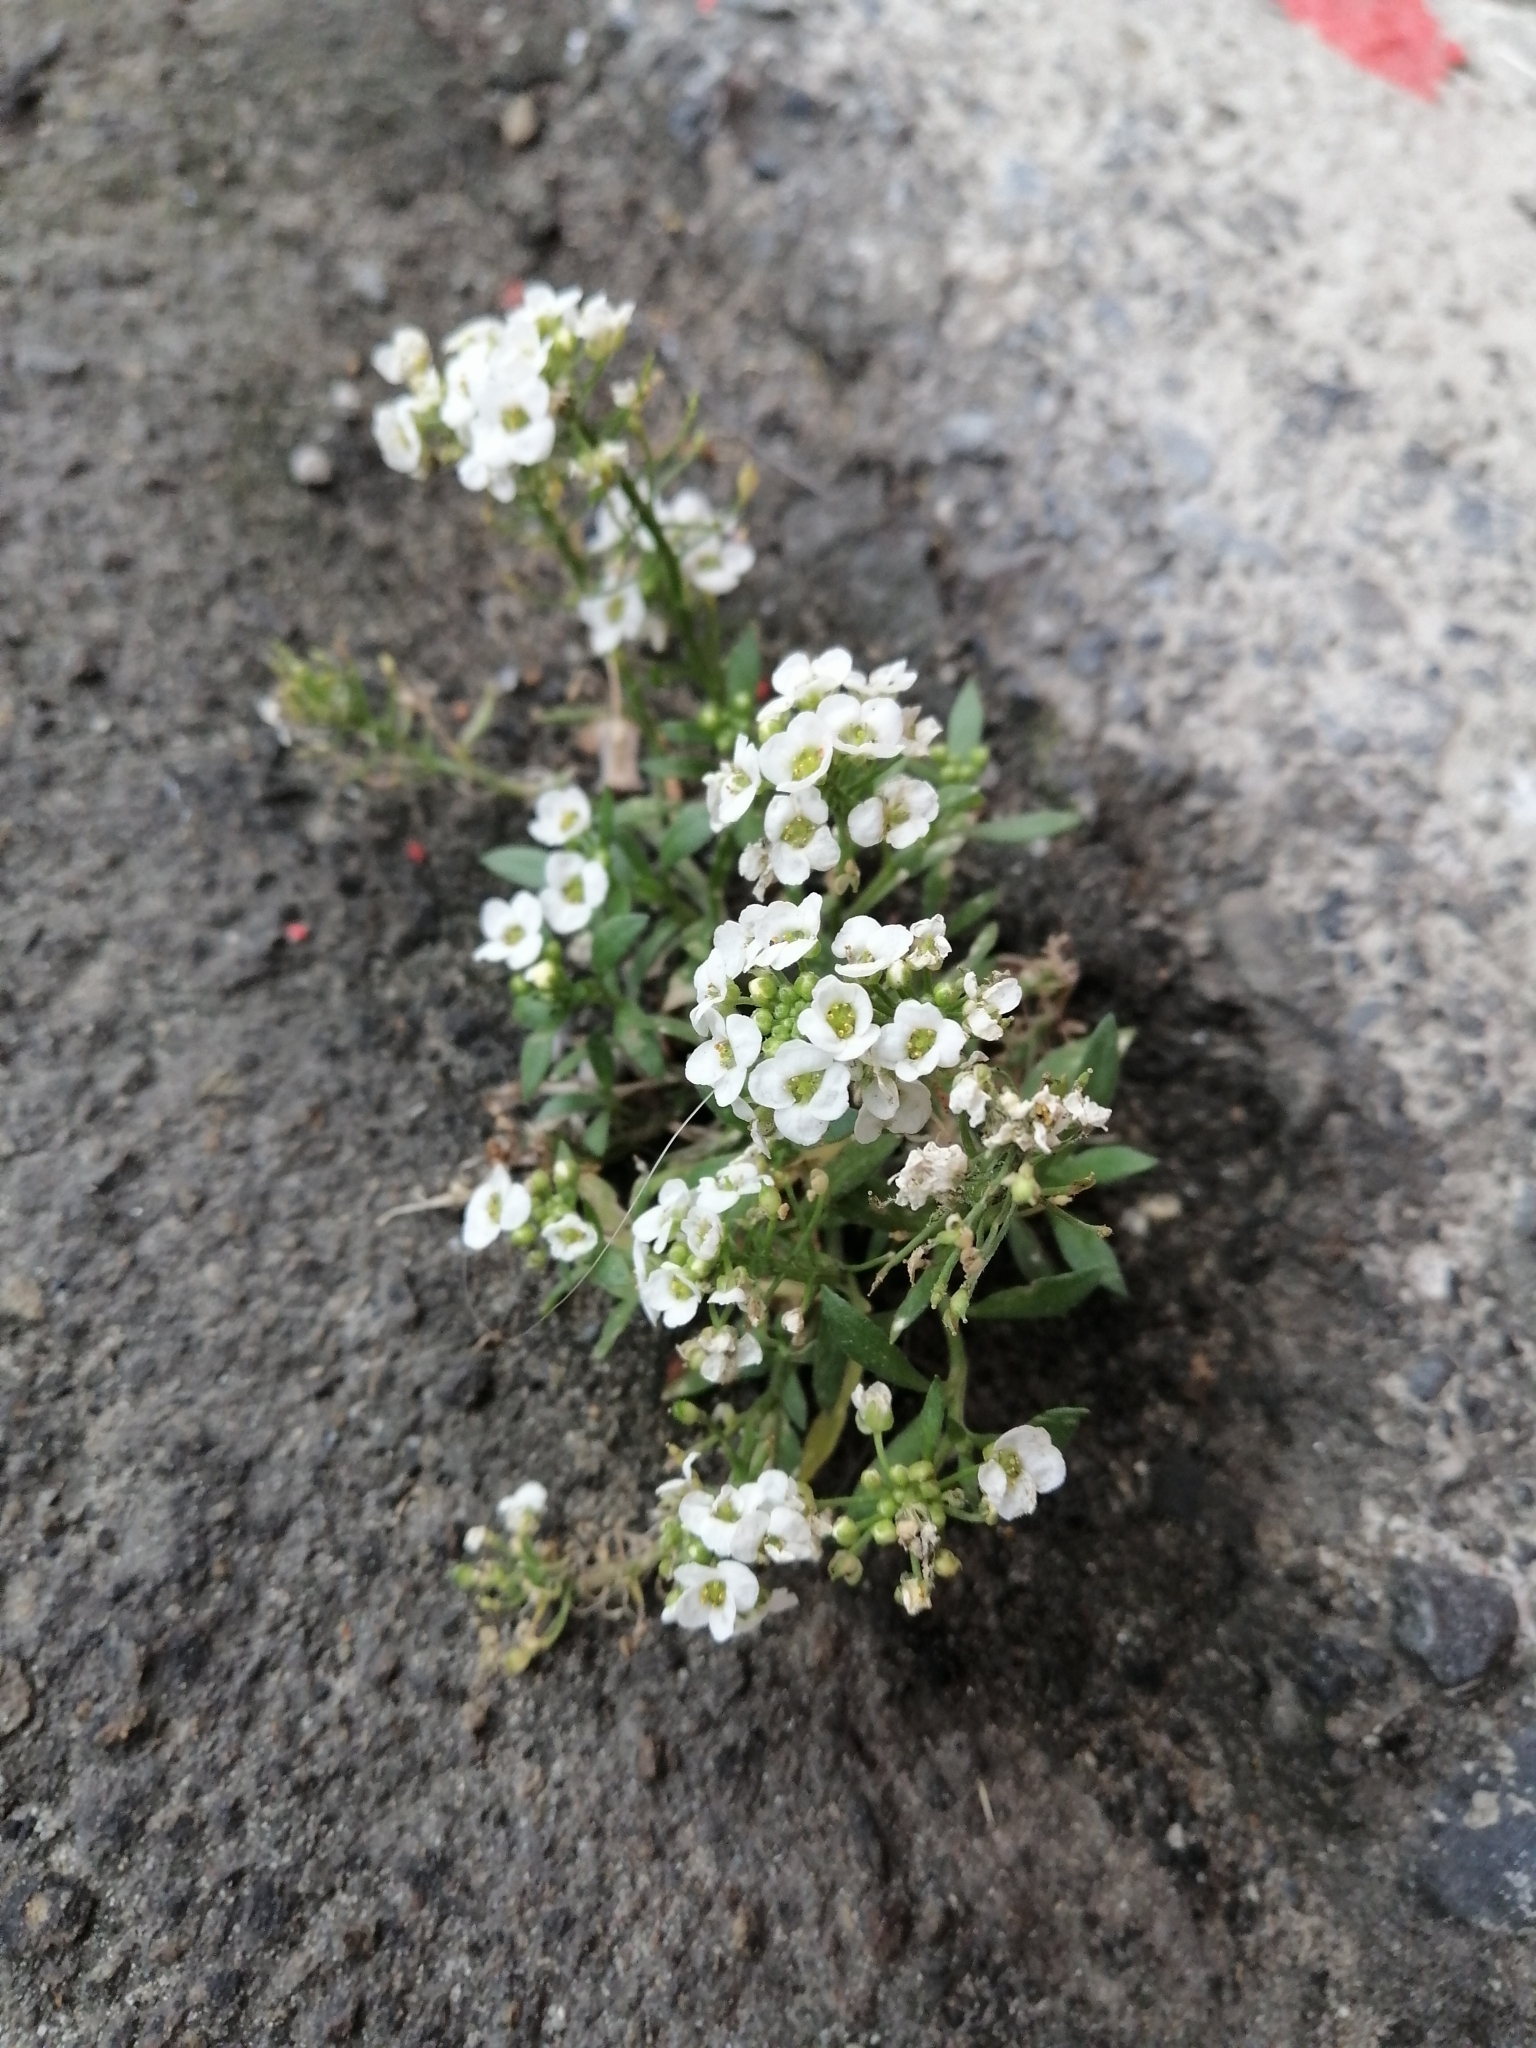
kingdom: Plantae
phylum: Tracheophyta
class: Magnoliopsida
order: Brassicales
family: Brassicaceae
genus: Lobularia
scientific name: Lobularia maritima
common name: Sweet alison
